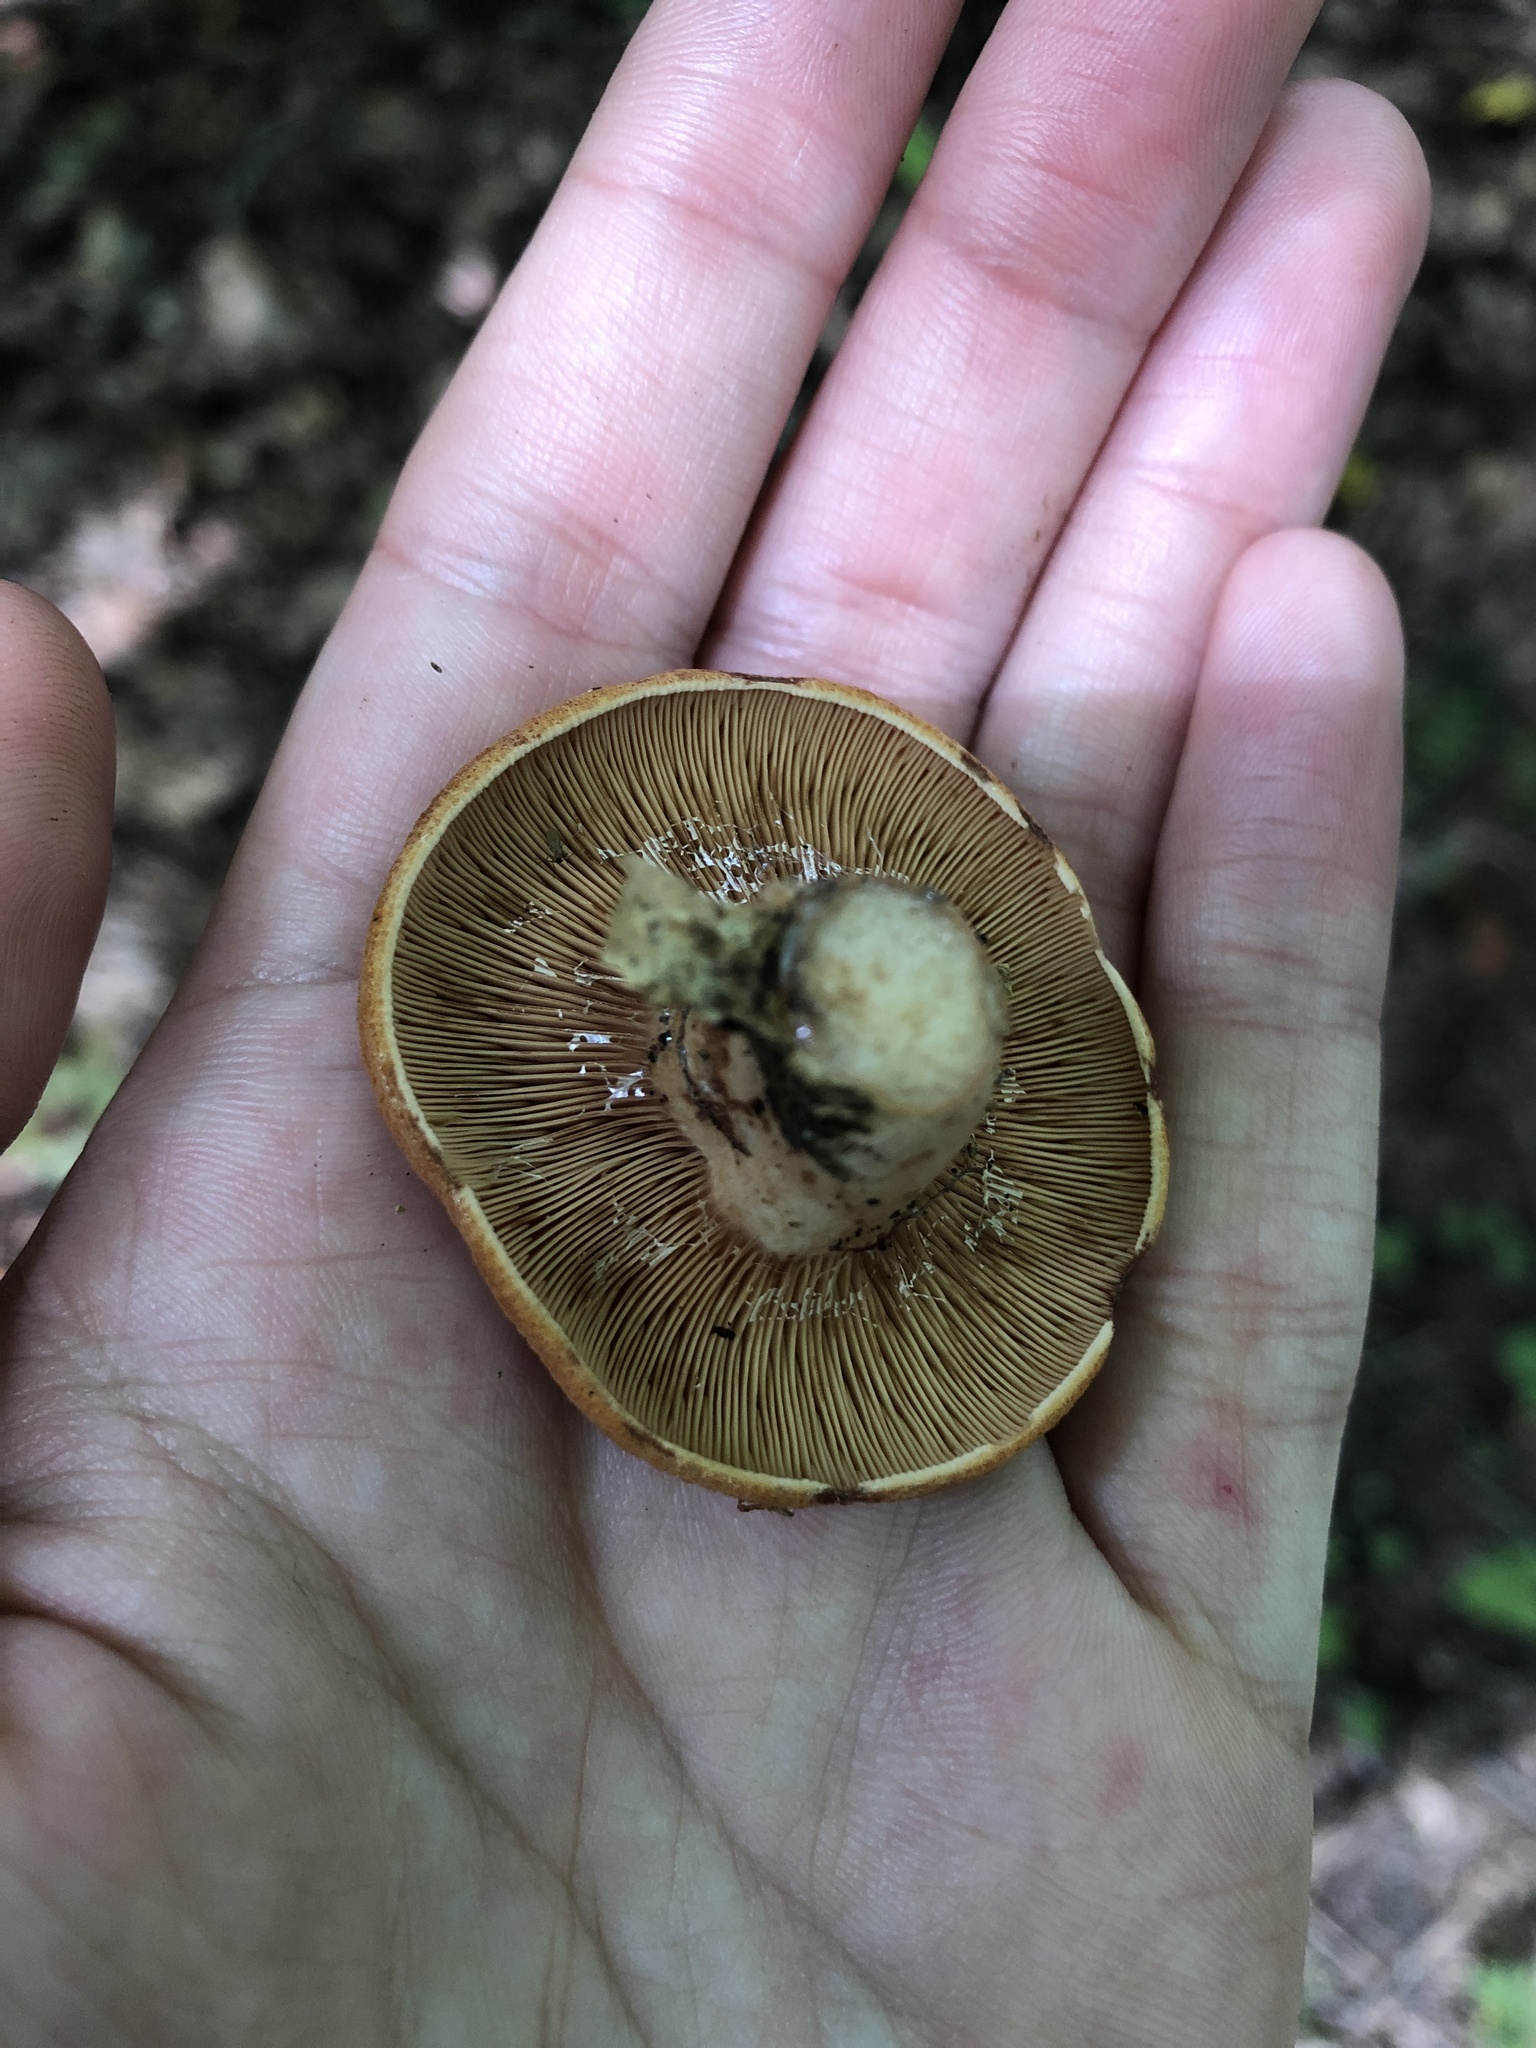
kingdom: Fungi
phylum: Basidiomycota
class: Agaricomycetes
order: Russulales
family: Russulaceae
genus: Lactarius
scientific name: Lactarius peckii
